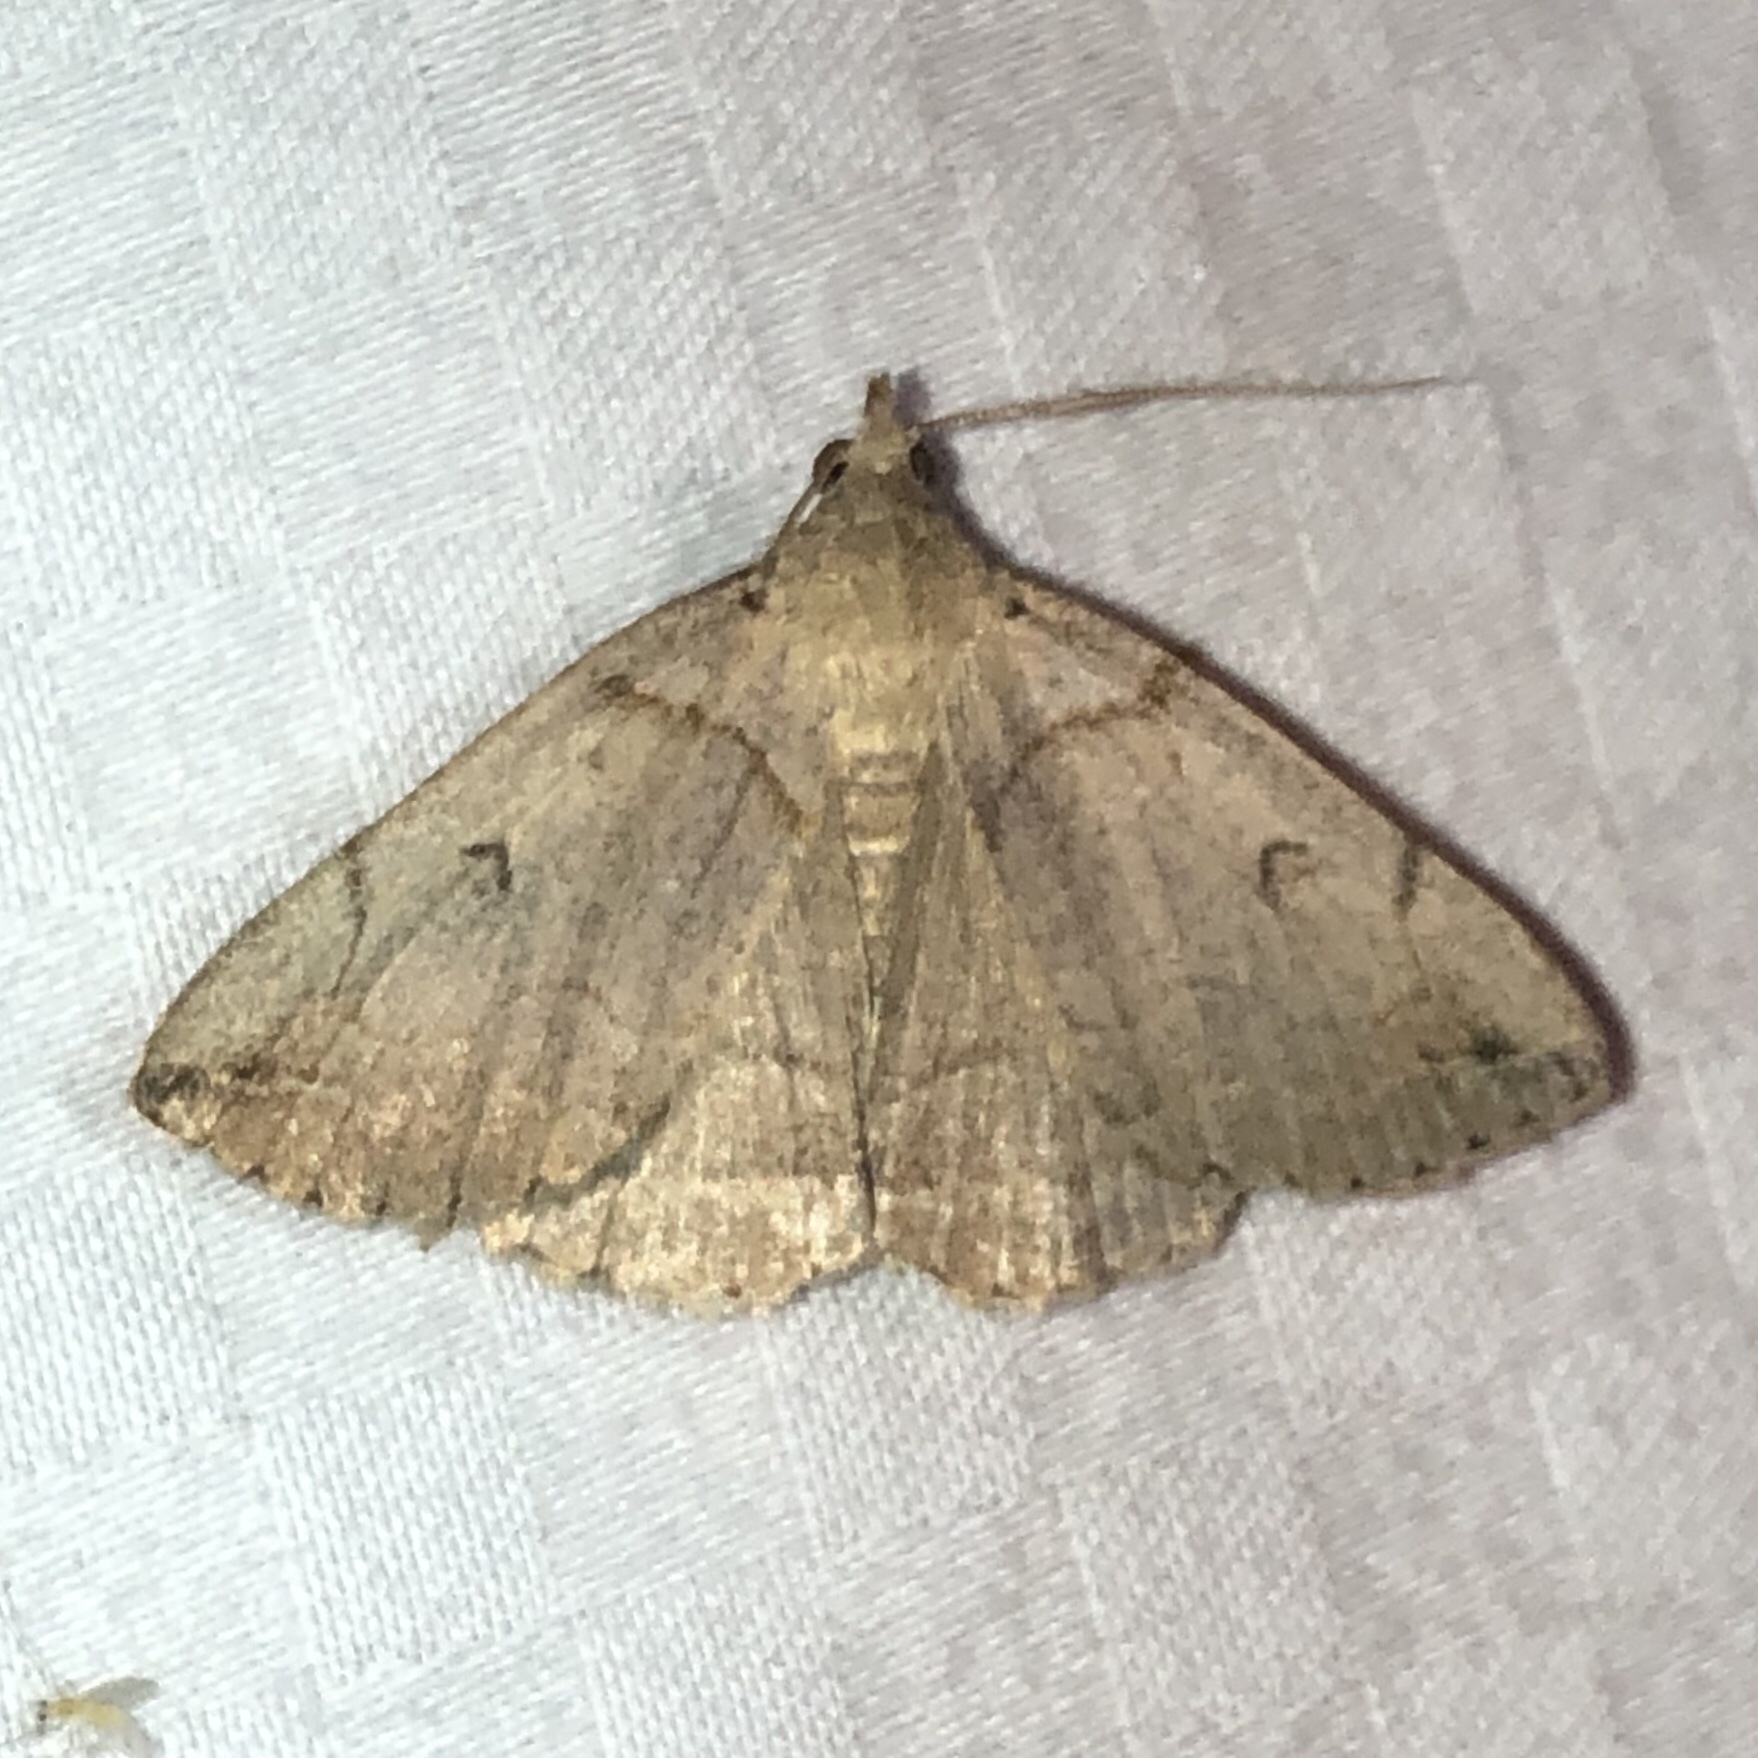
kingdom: Animalia
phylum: Arthropoda
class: Insecta
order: Lepidoptera
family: Erebidae
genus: Zanclognatha
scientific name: Zanclognatha laevigata
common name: Variable fan-foot
